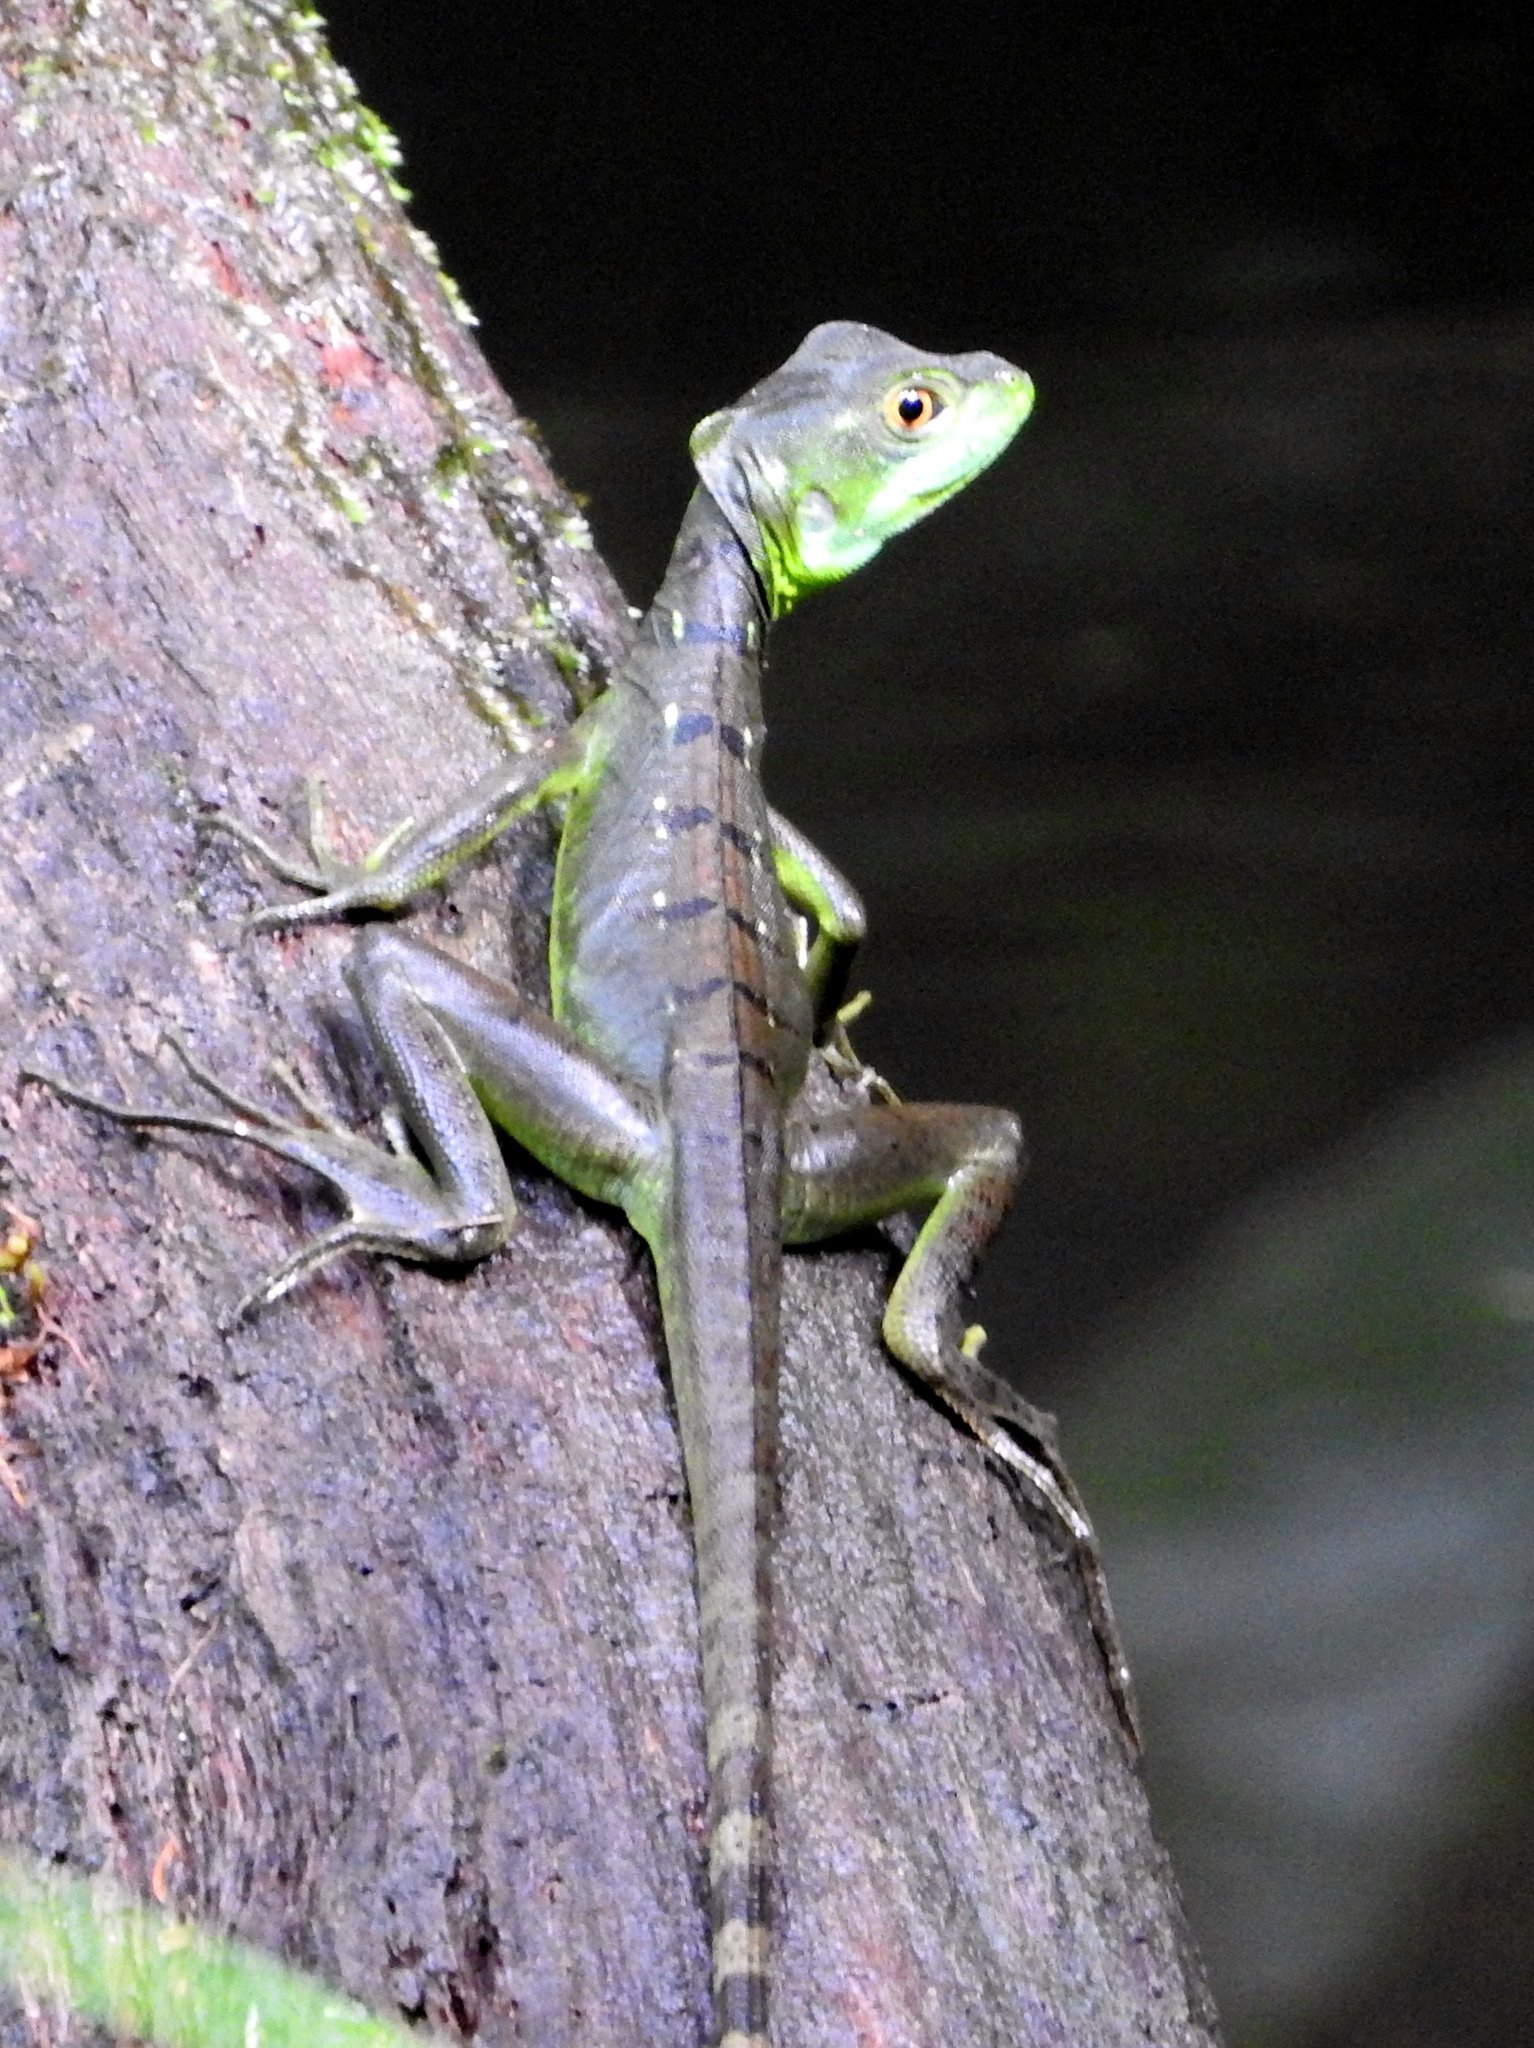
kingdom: Animalia
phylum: Chordata
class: Squamata
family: Corytophanidae
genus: Basiliscus
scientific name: Basiliscus plumifrons
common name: Green basilisk
